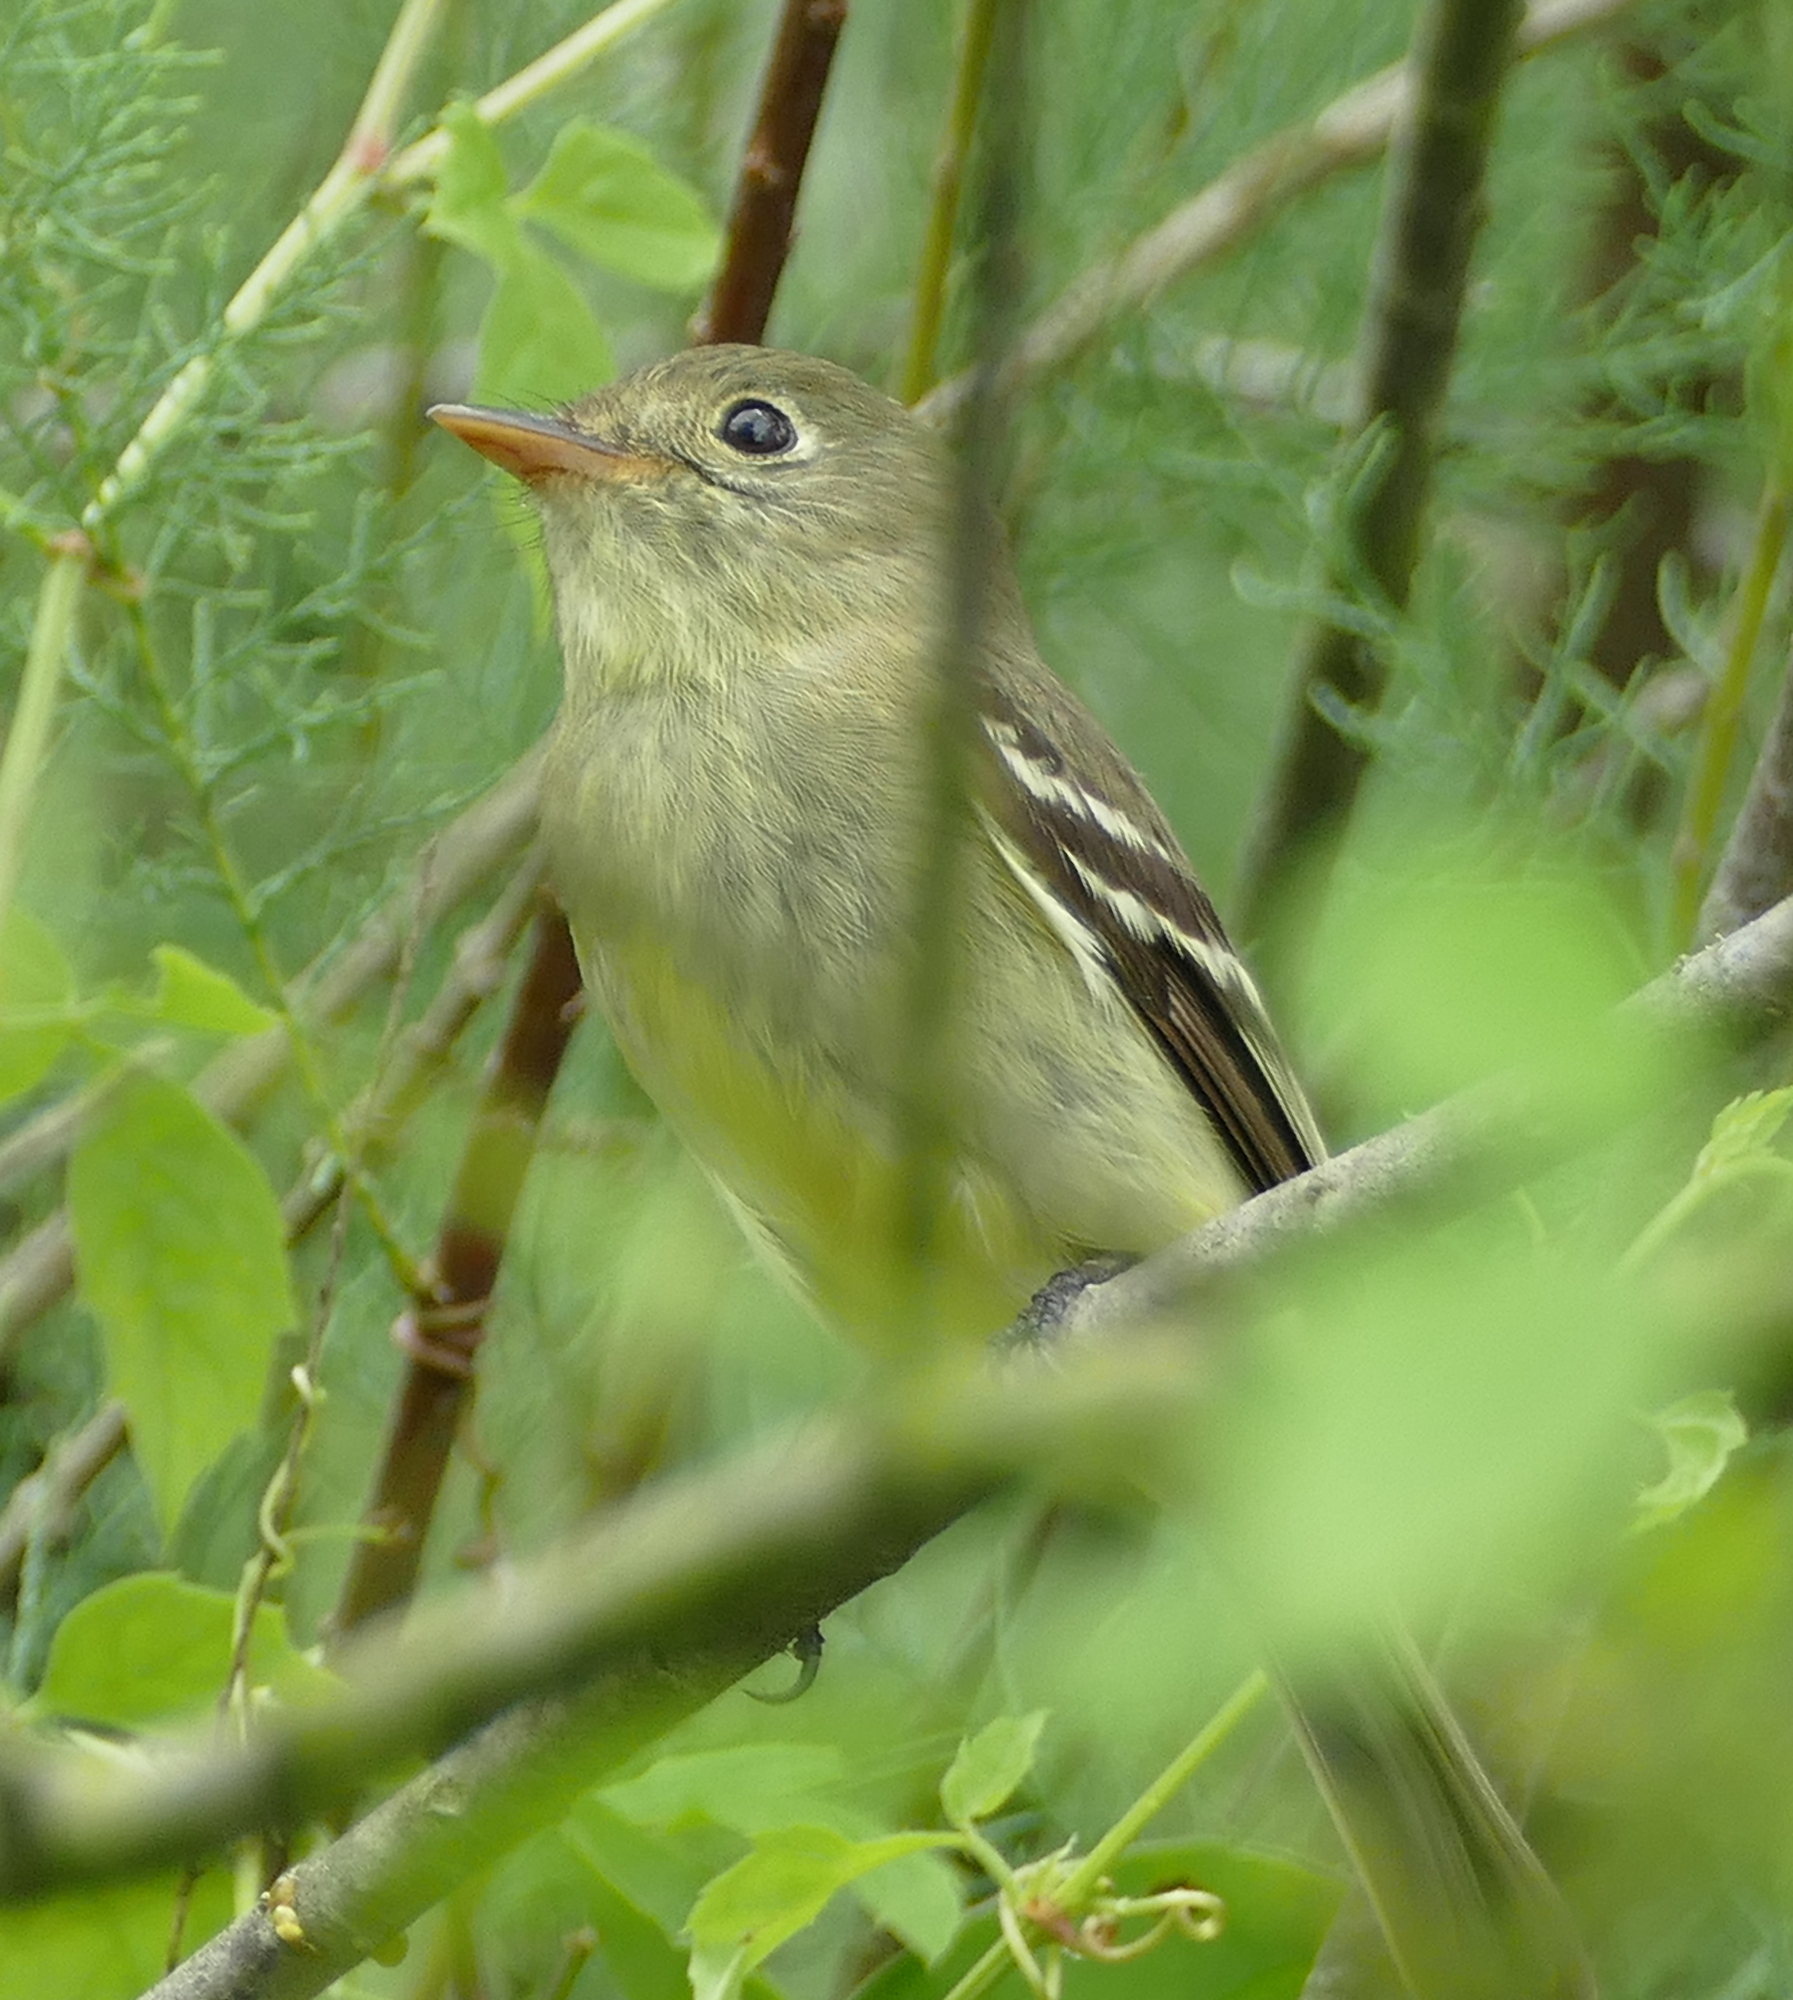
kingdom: Animalia
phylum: Chordata
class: Aves
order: Passeriformes
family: Tyrannidae
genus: Empidonax
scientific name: Empidonax flaviventris
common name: Yellow-bellied flycatcher
